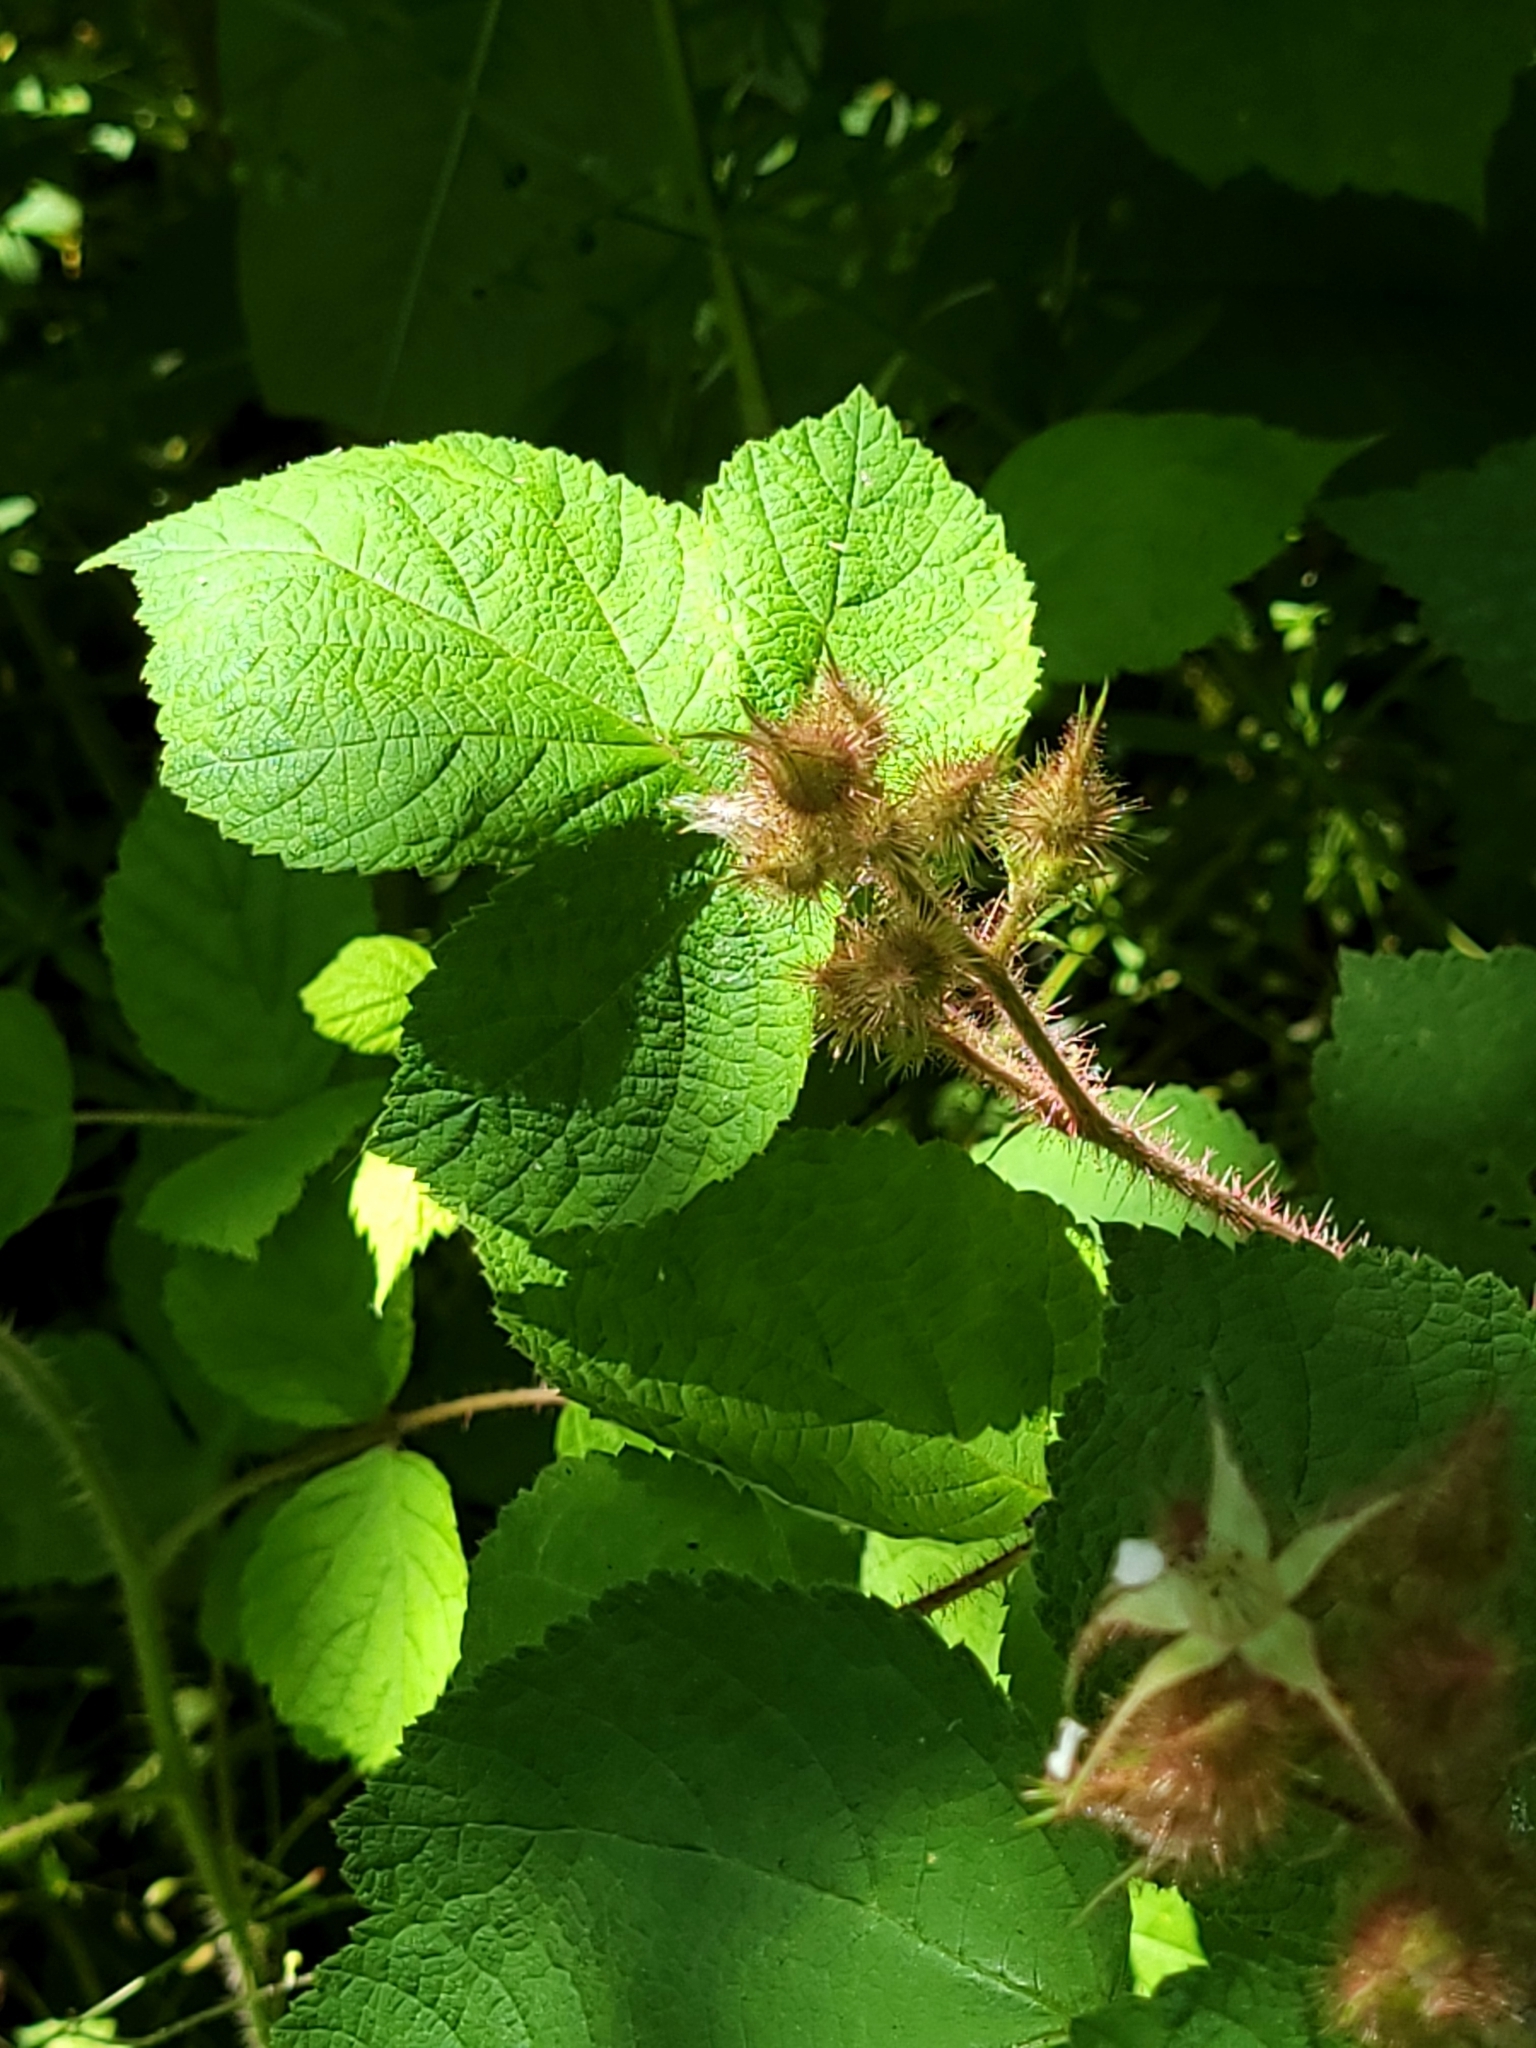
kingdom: Plantae
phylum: Tracheophyta
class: Magnoliopsida
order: Rosales
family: Rosaceae
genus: Rubus
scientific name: Rubus phoenicolasius
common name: Japanese wineberry
